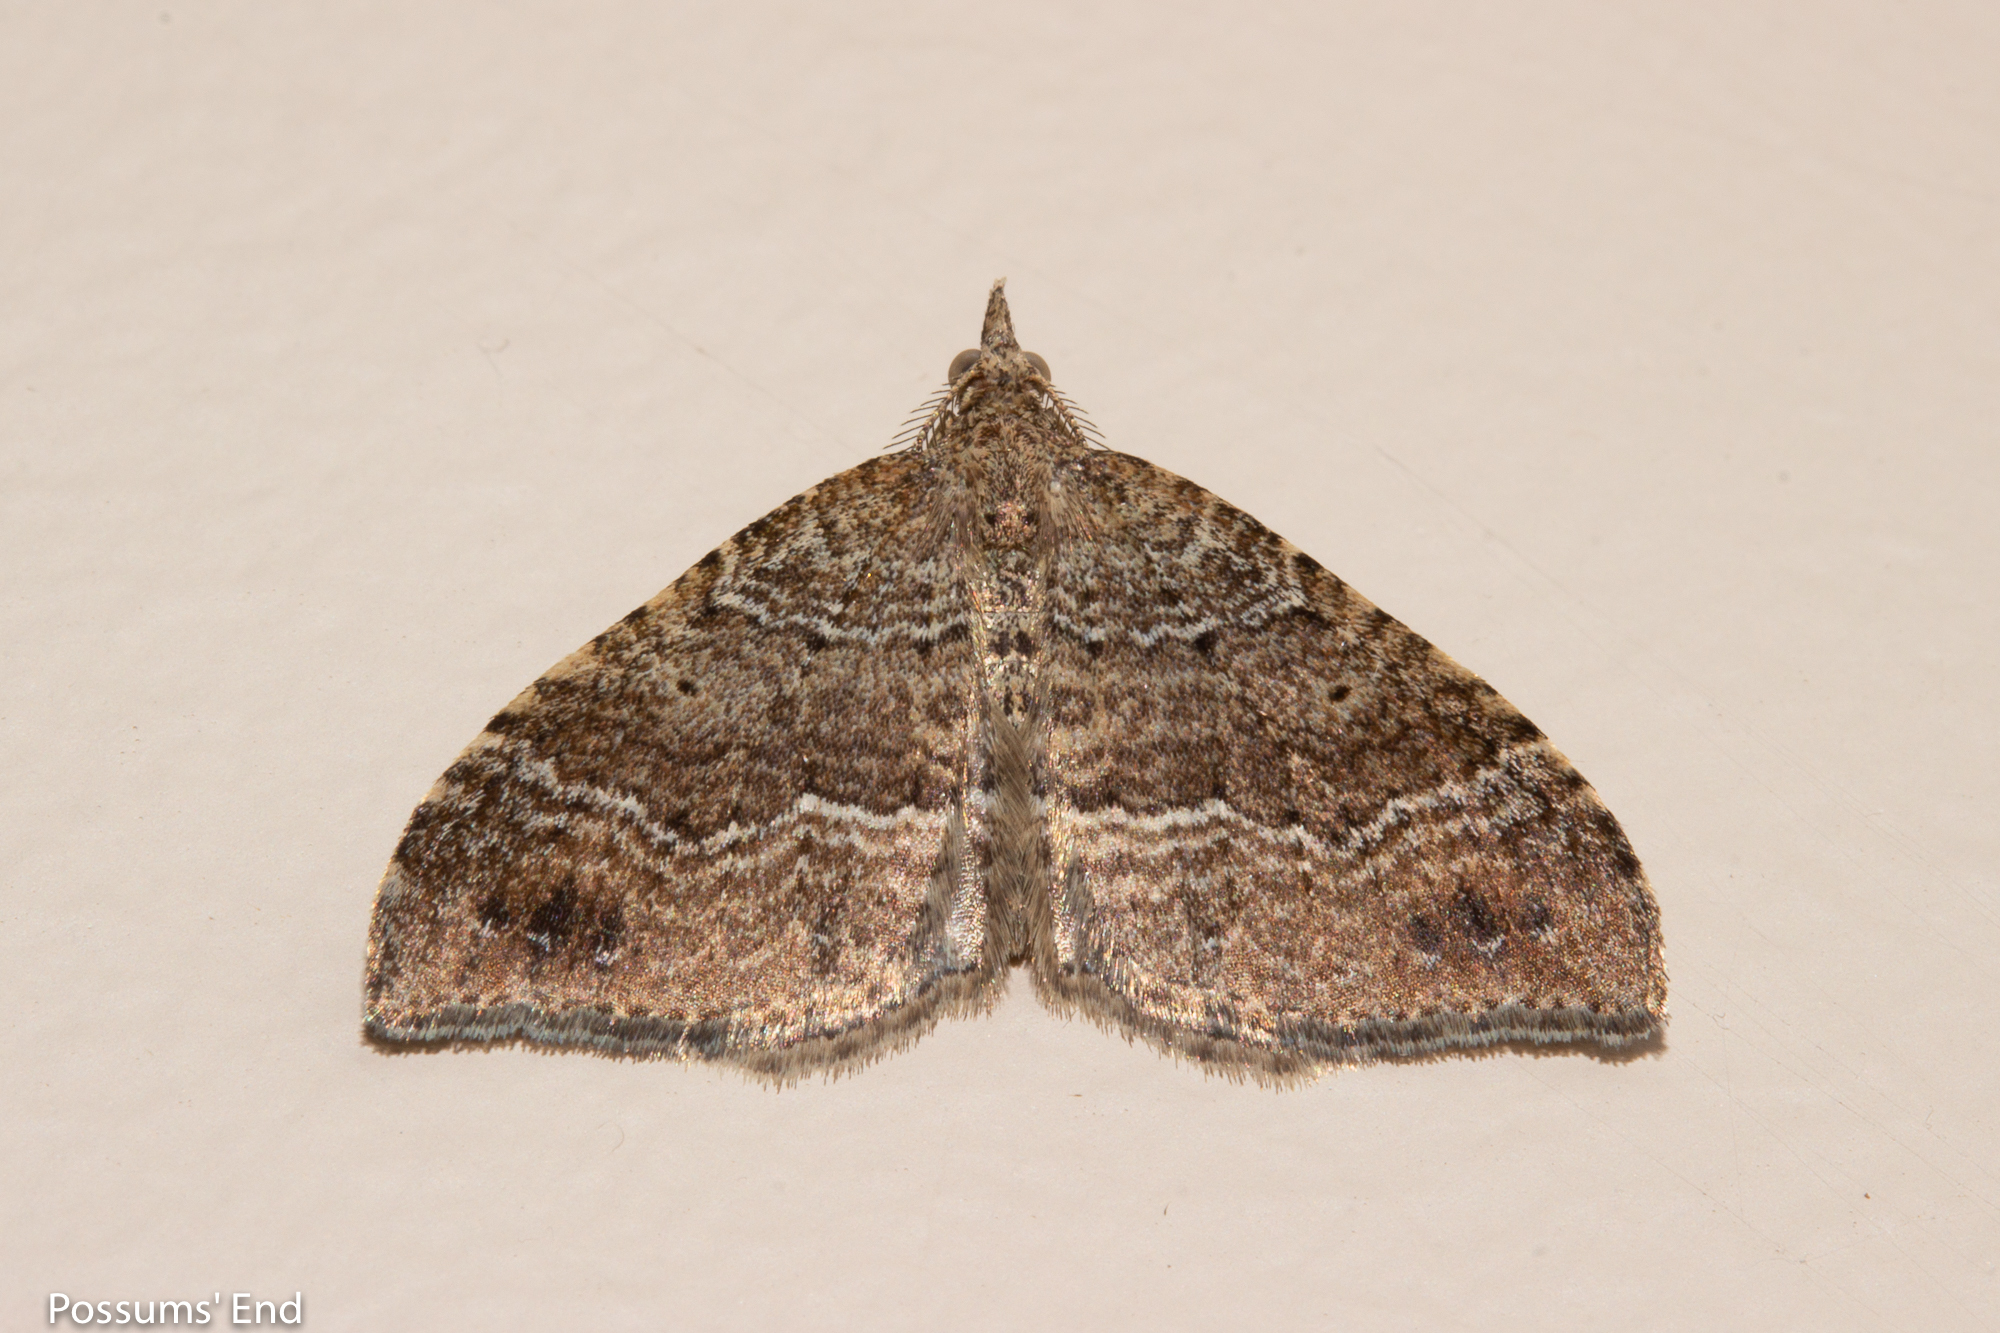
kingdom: Animalia
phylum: Arthropoda
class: Insecta
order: Lepidoptera
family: Geometridae
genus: Homodotis
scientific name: Homodotis falcata
